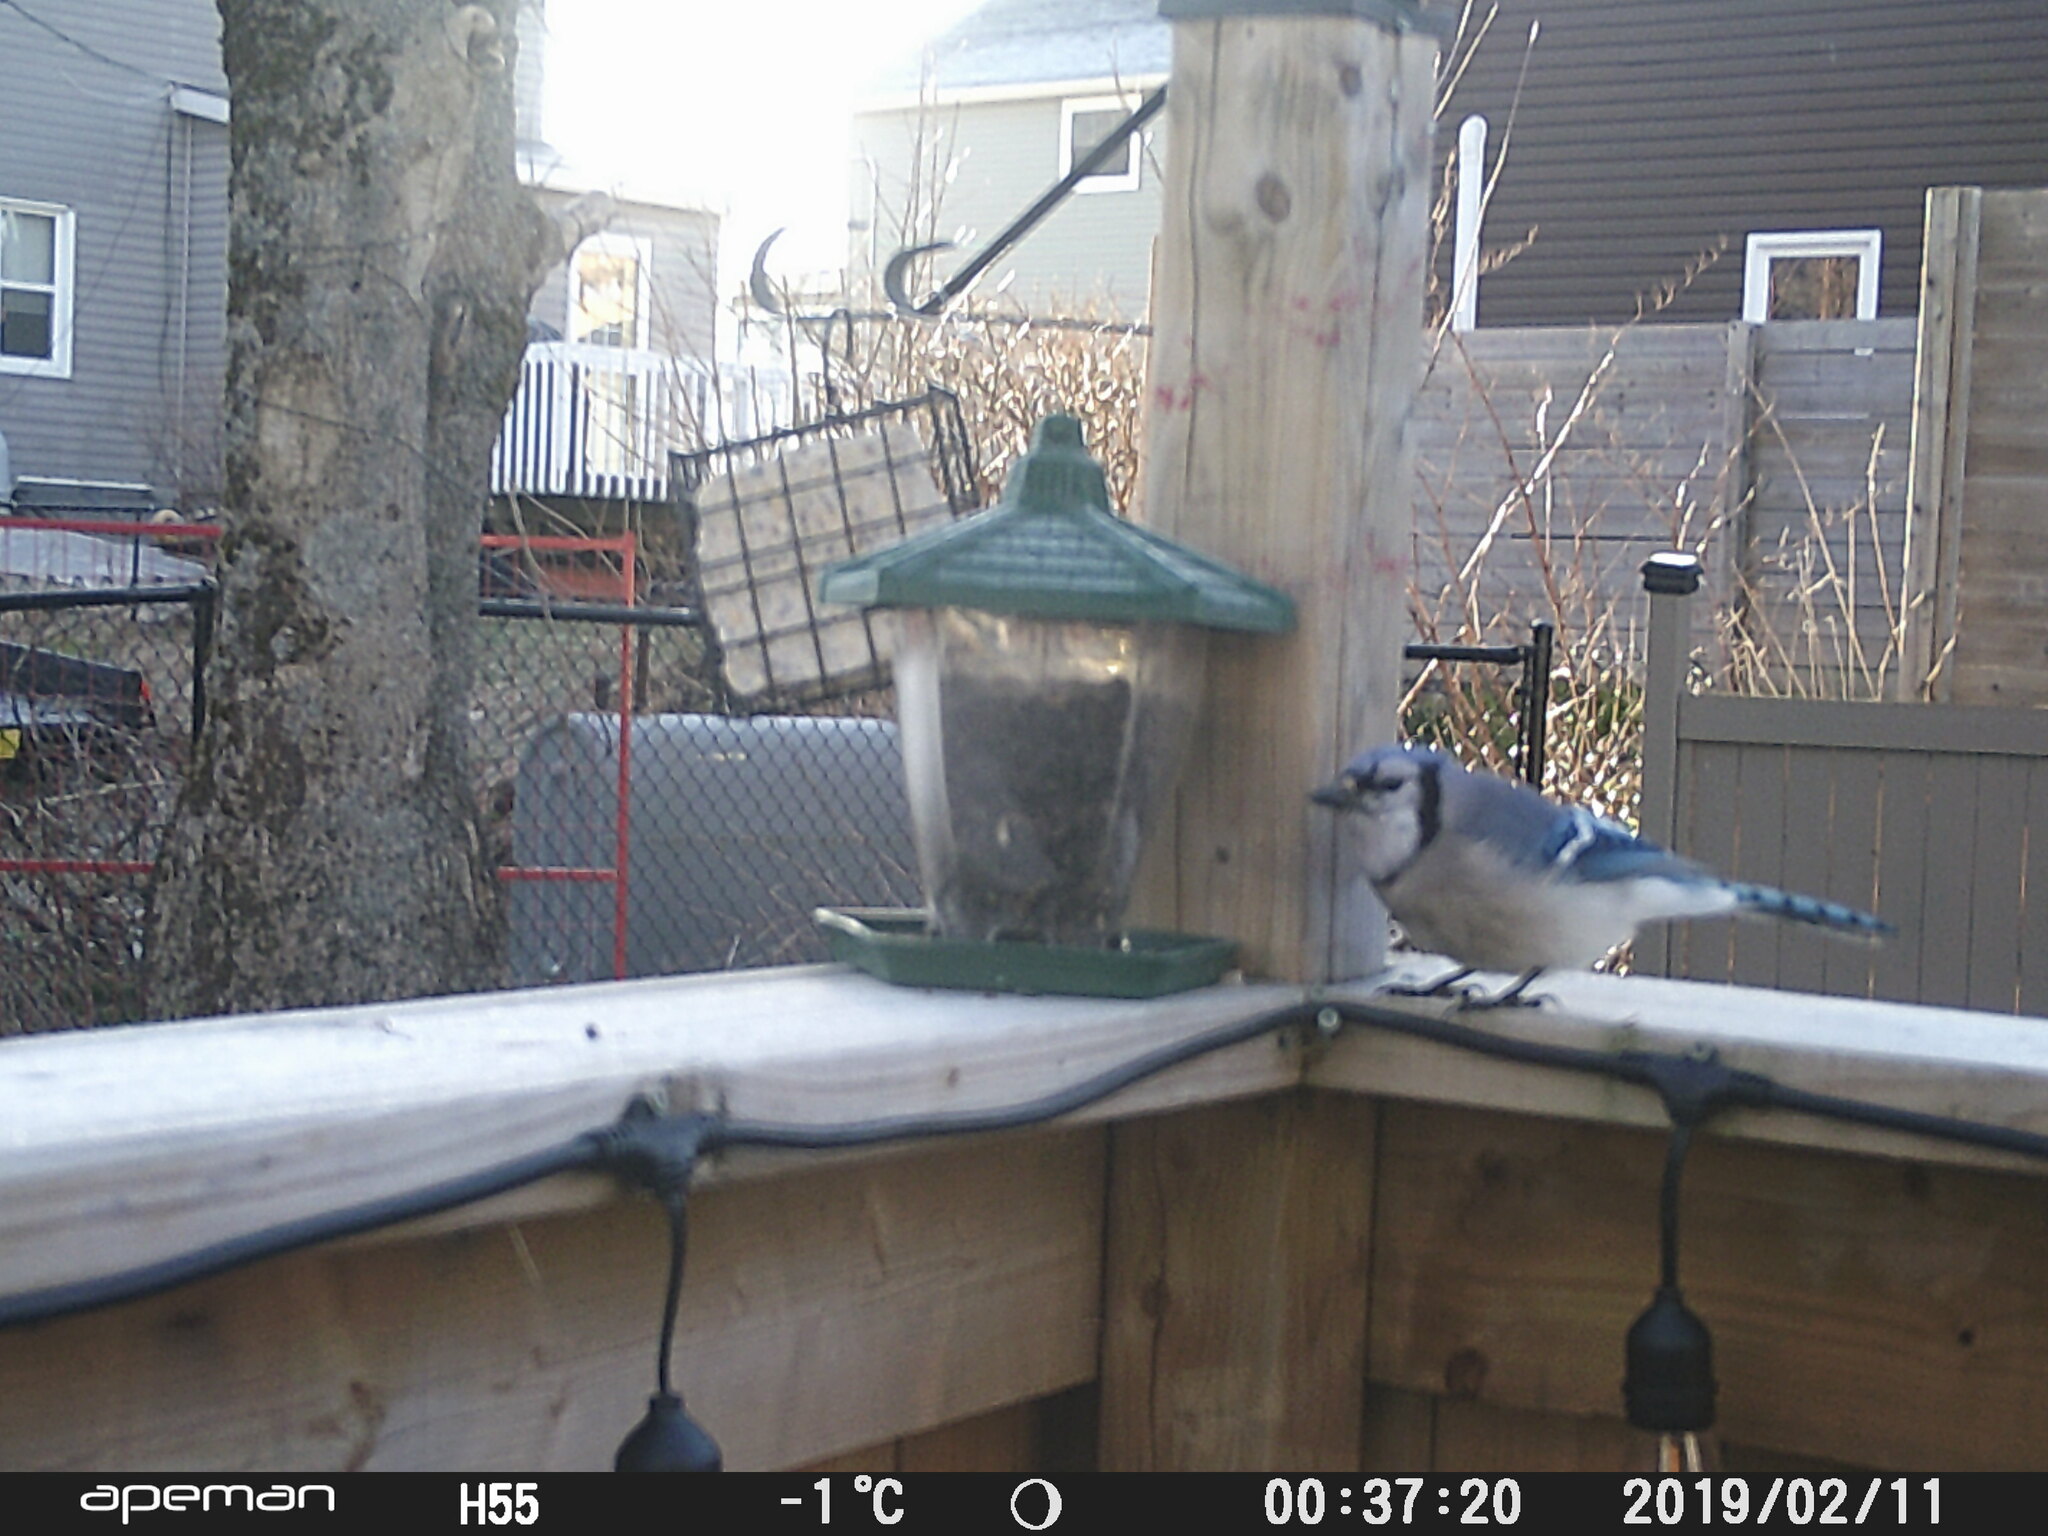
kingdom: Animalia
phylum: Chordata
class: Aves
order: Passeriformes
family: Corvidae
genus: Cyanocitta
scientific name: Cyanocitta cristata
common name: Blue jay
